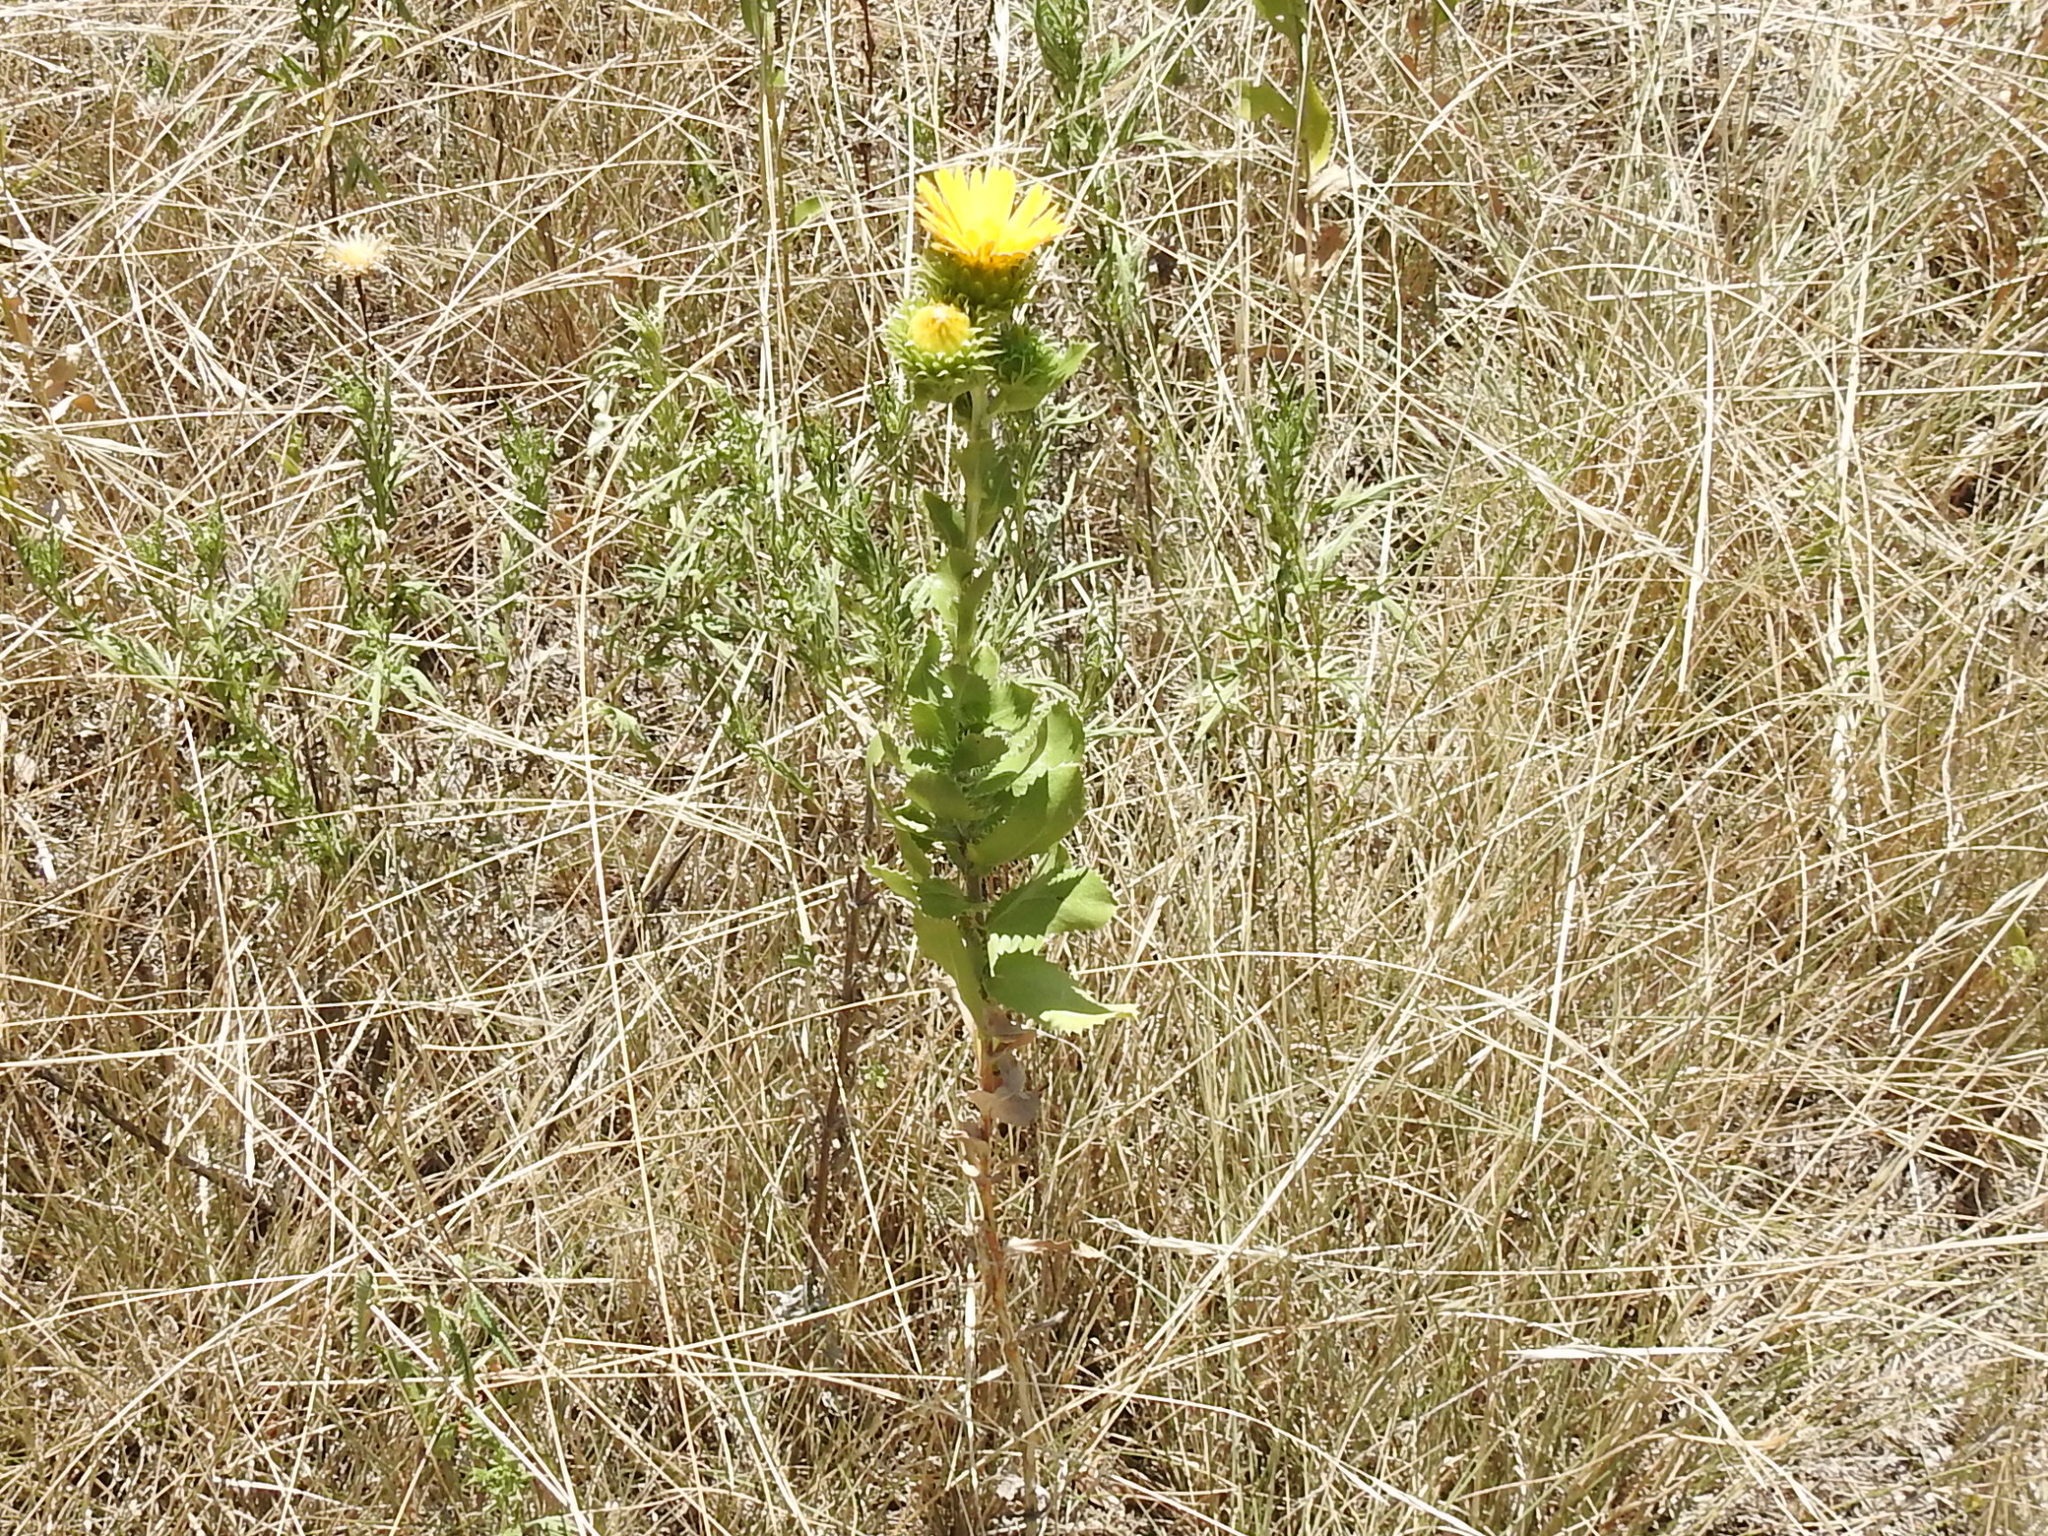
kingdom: Plantae
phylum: Tracheophyta
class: Magnoliopsida
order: Asterales
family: Asteraceae
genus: Grindelia
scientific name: Grindelia ciliata
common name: Goldenweed
